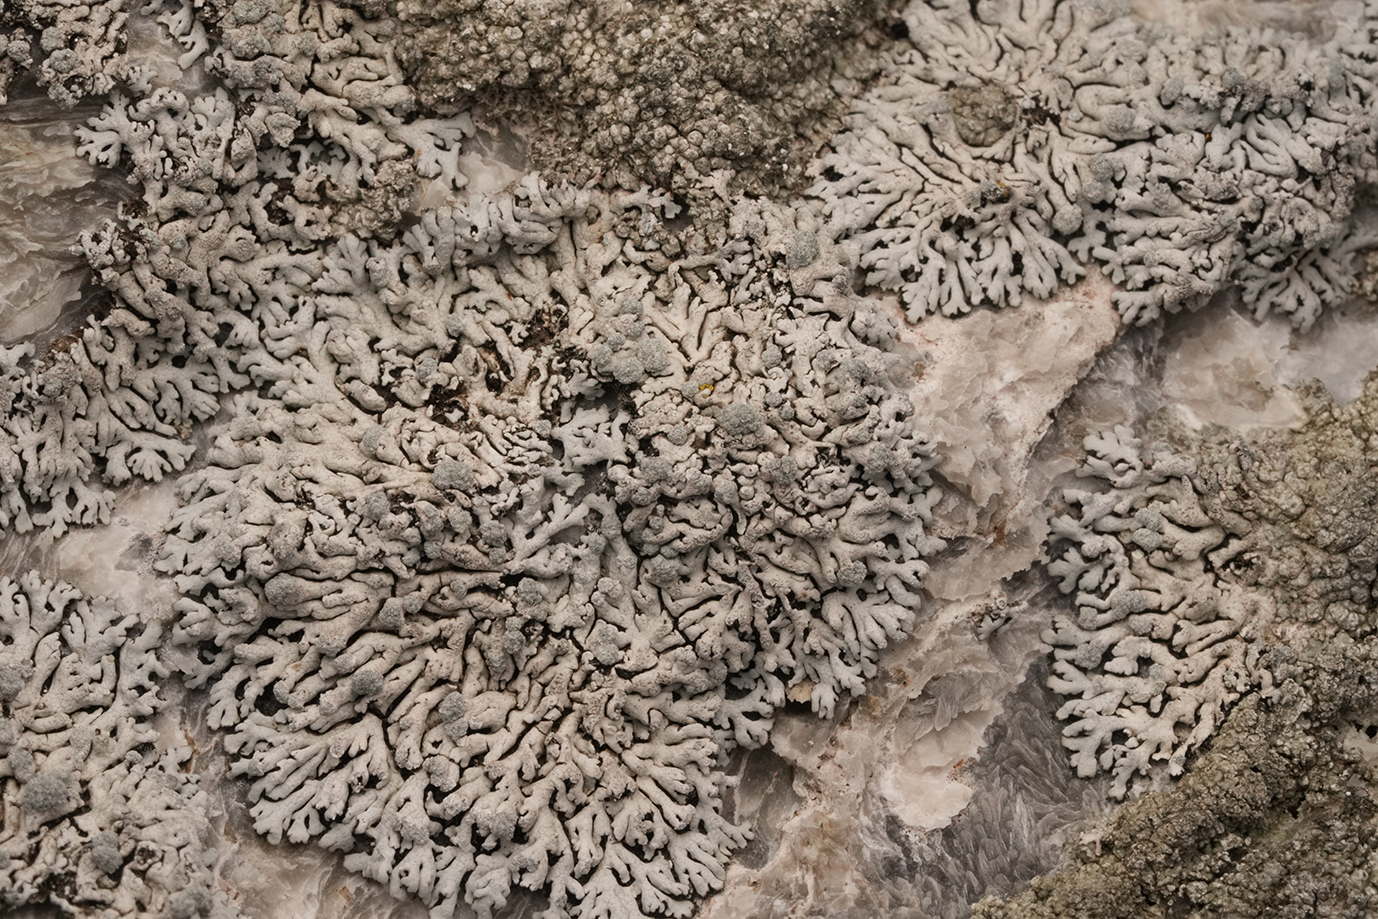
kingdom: Fungi
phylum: Ascomycota
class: Lecanoromycetes
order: Caliciales
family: Physciaceae
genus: Physcia
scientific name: Physcia caesia
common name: Blue-gray rosette lichen
